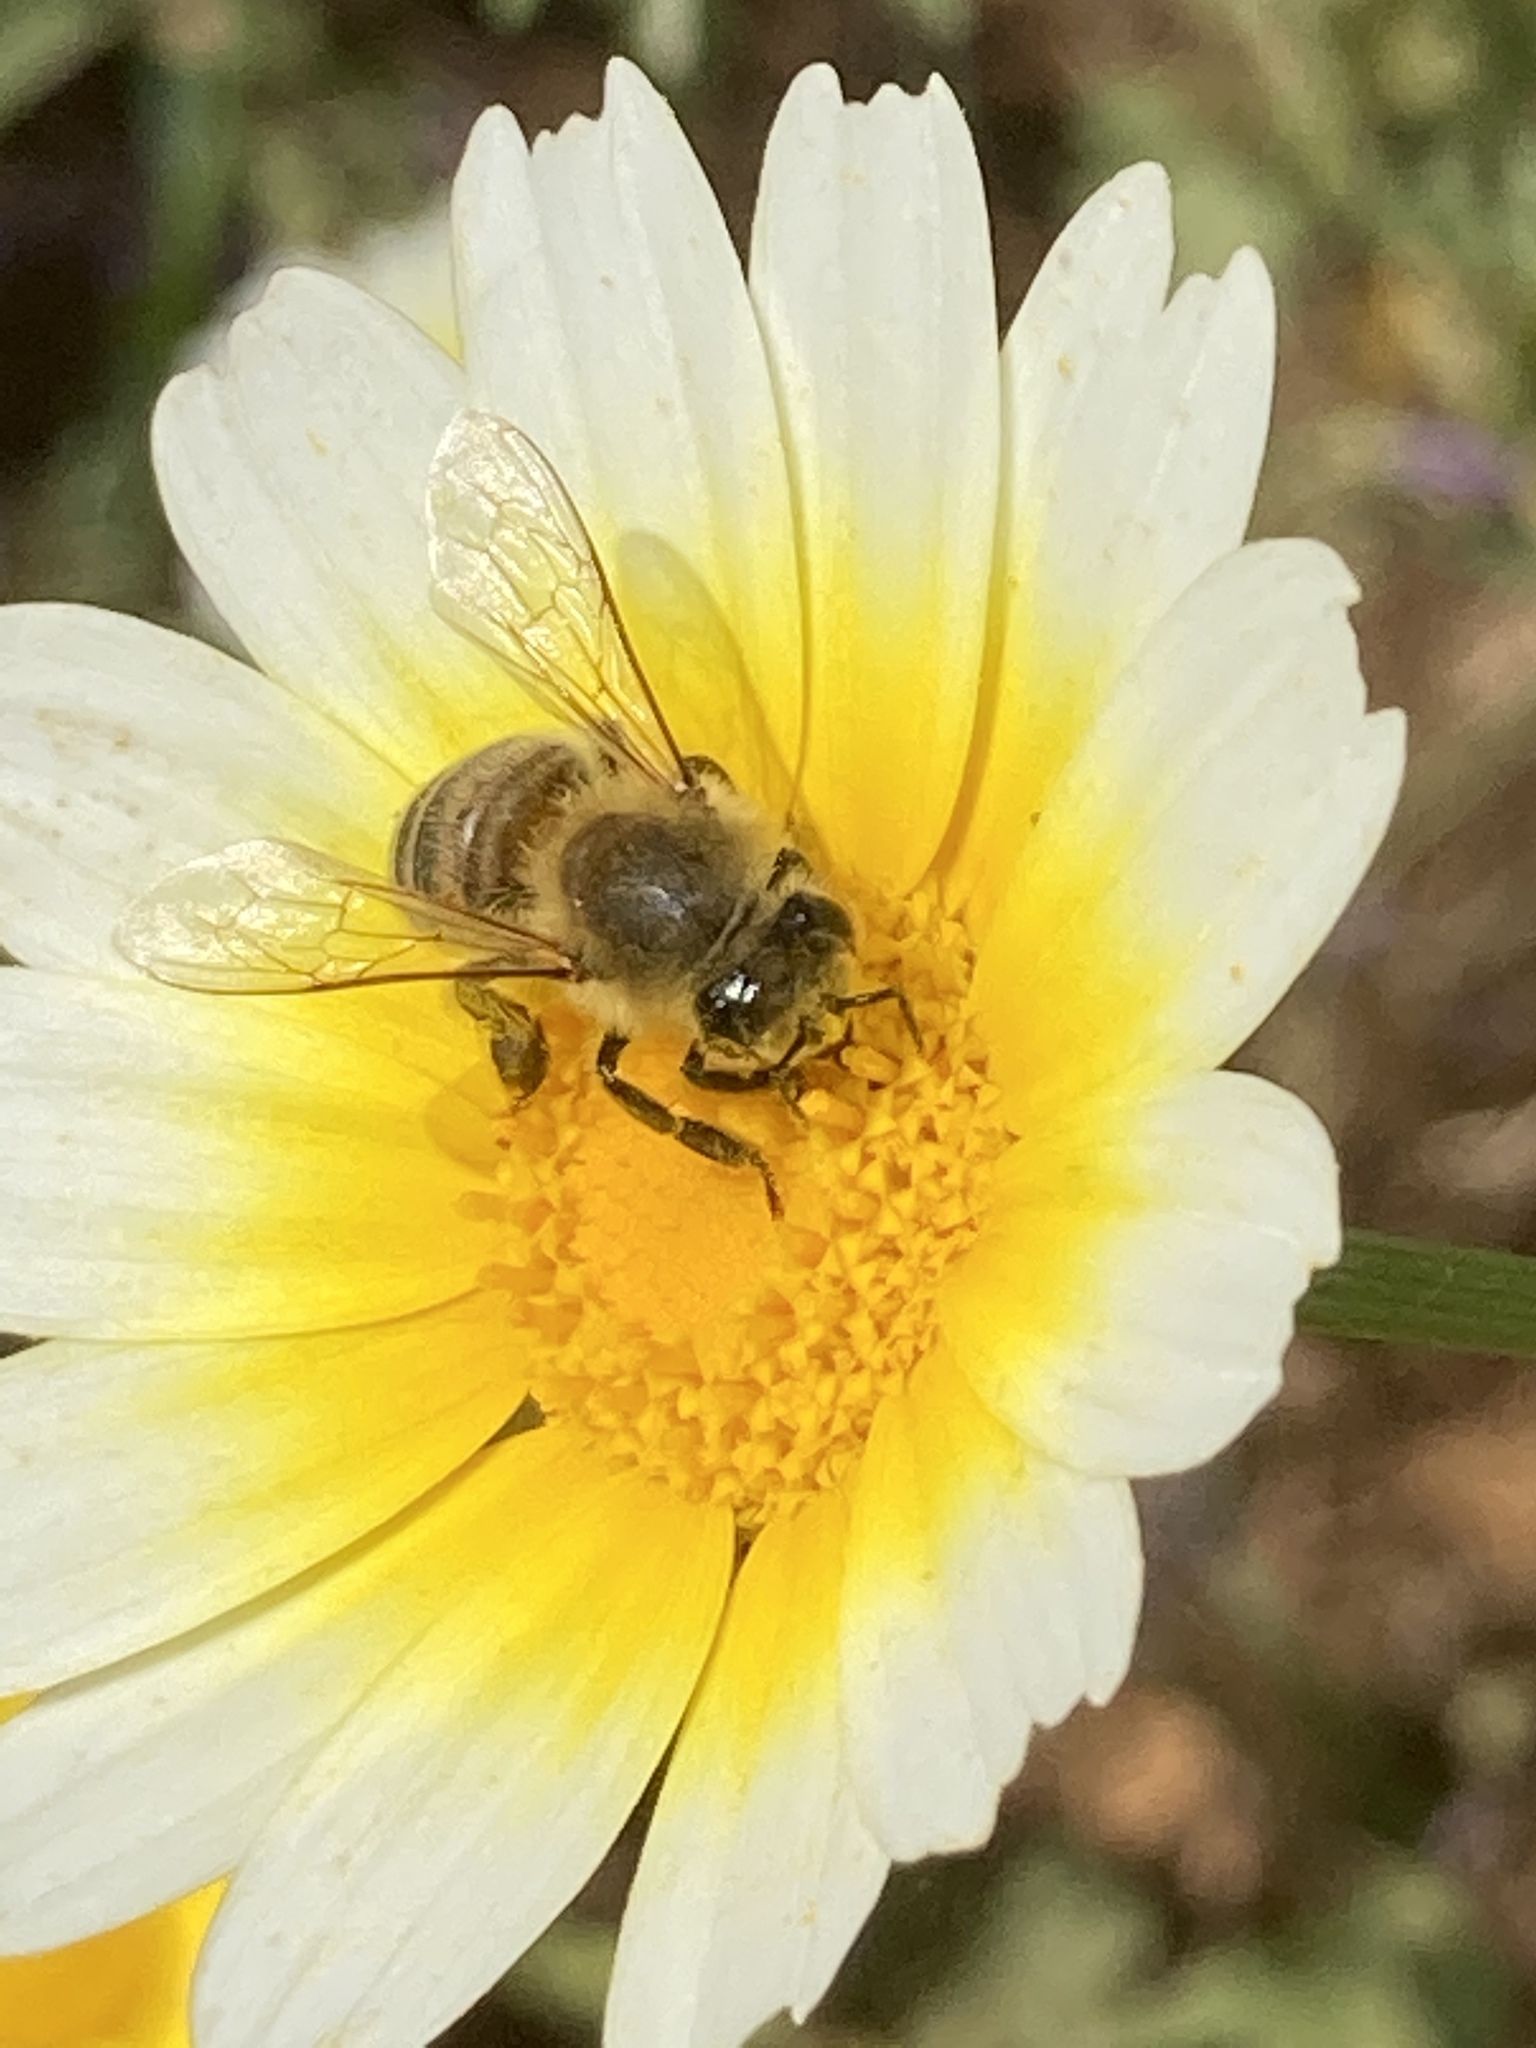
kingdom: Animalia
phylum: Arthropoda
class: Insecta
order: Hymenoptera
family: Apidae
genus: Apis
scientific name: Apis mellifera
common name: Honey bee
